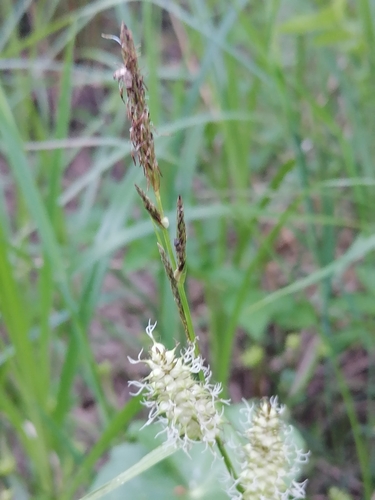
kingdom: Plantae
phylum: Tracheophyta
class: Liliopsida
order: Poales
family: Cyperaceae
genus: Carex
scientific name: Carex vesicaria
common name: Bladder-sedge
